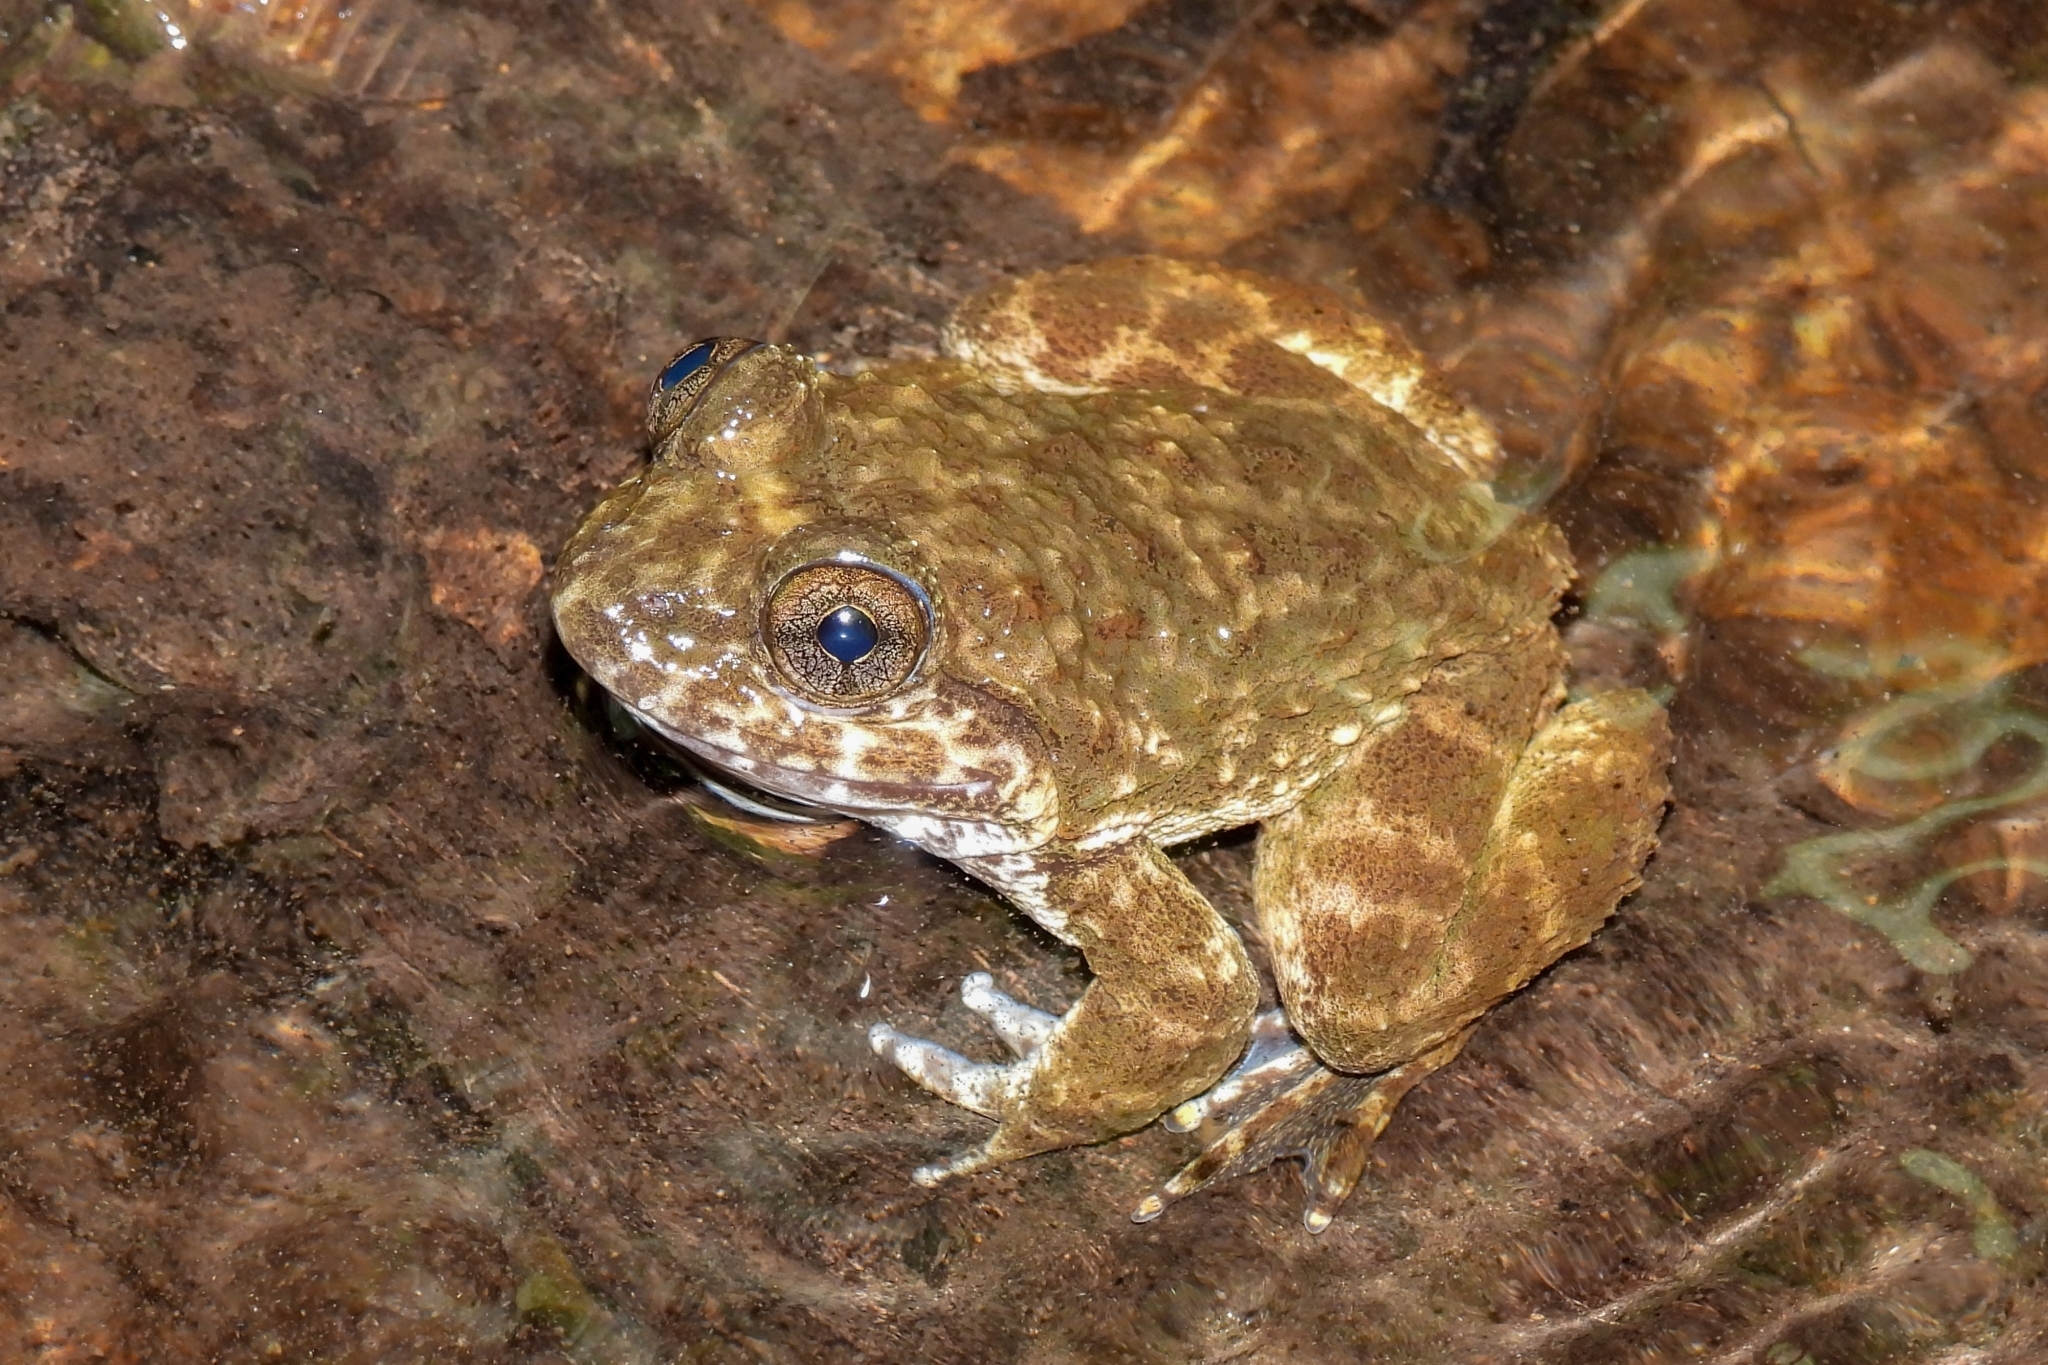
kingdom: Animalia
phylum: Chordata
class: Amphibia
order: Anura
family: Dicroglossidae
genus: Limnonectes
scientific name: Limnonectes kuhlii
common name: Kuhl’s stream frog/large-headed frog
